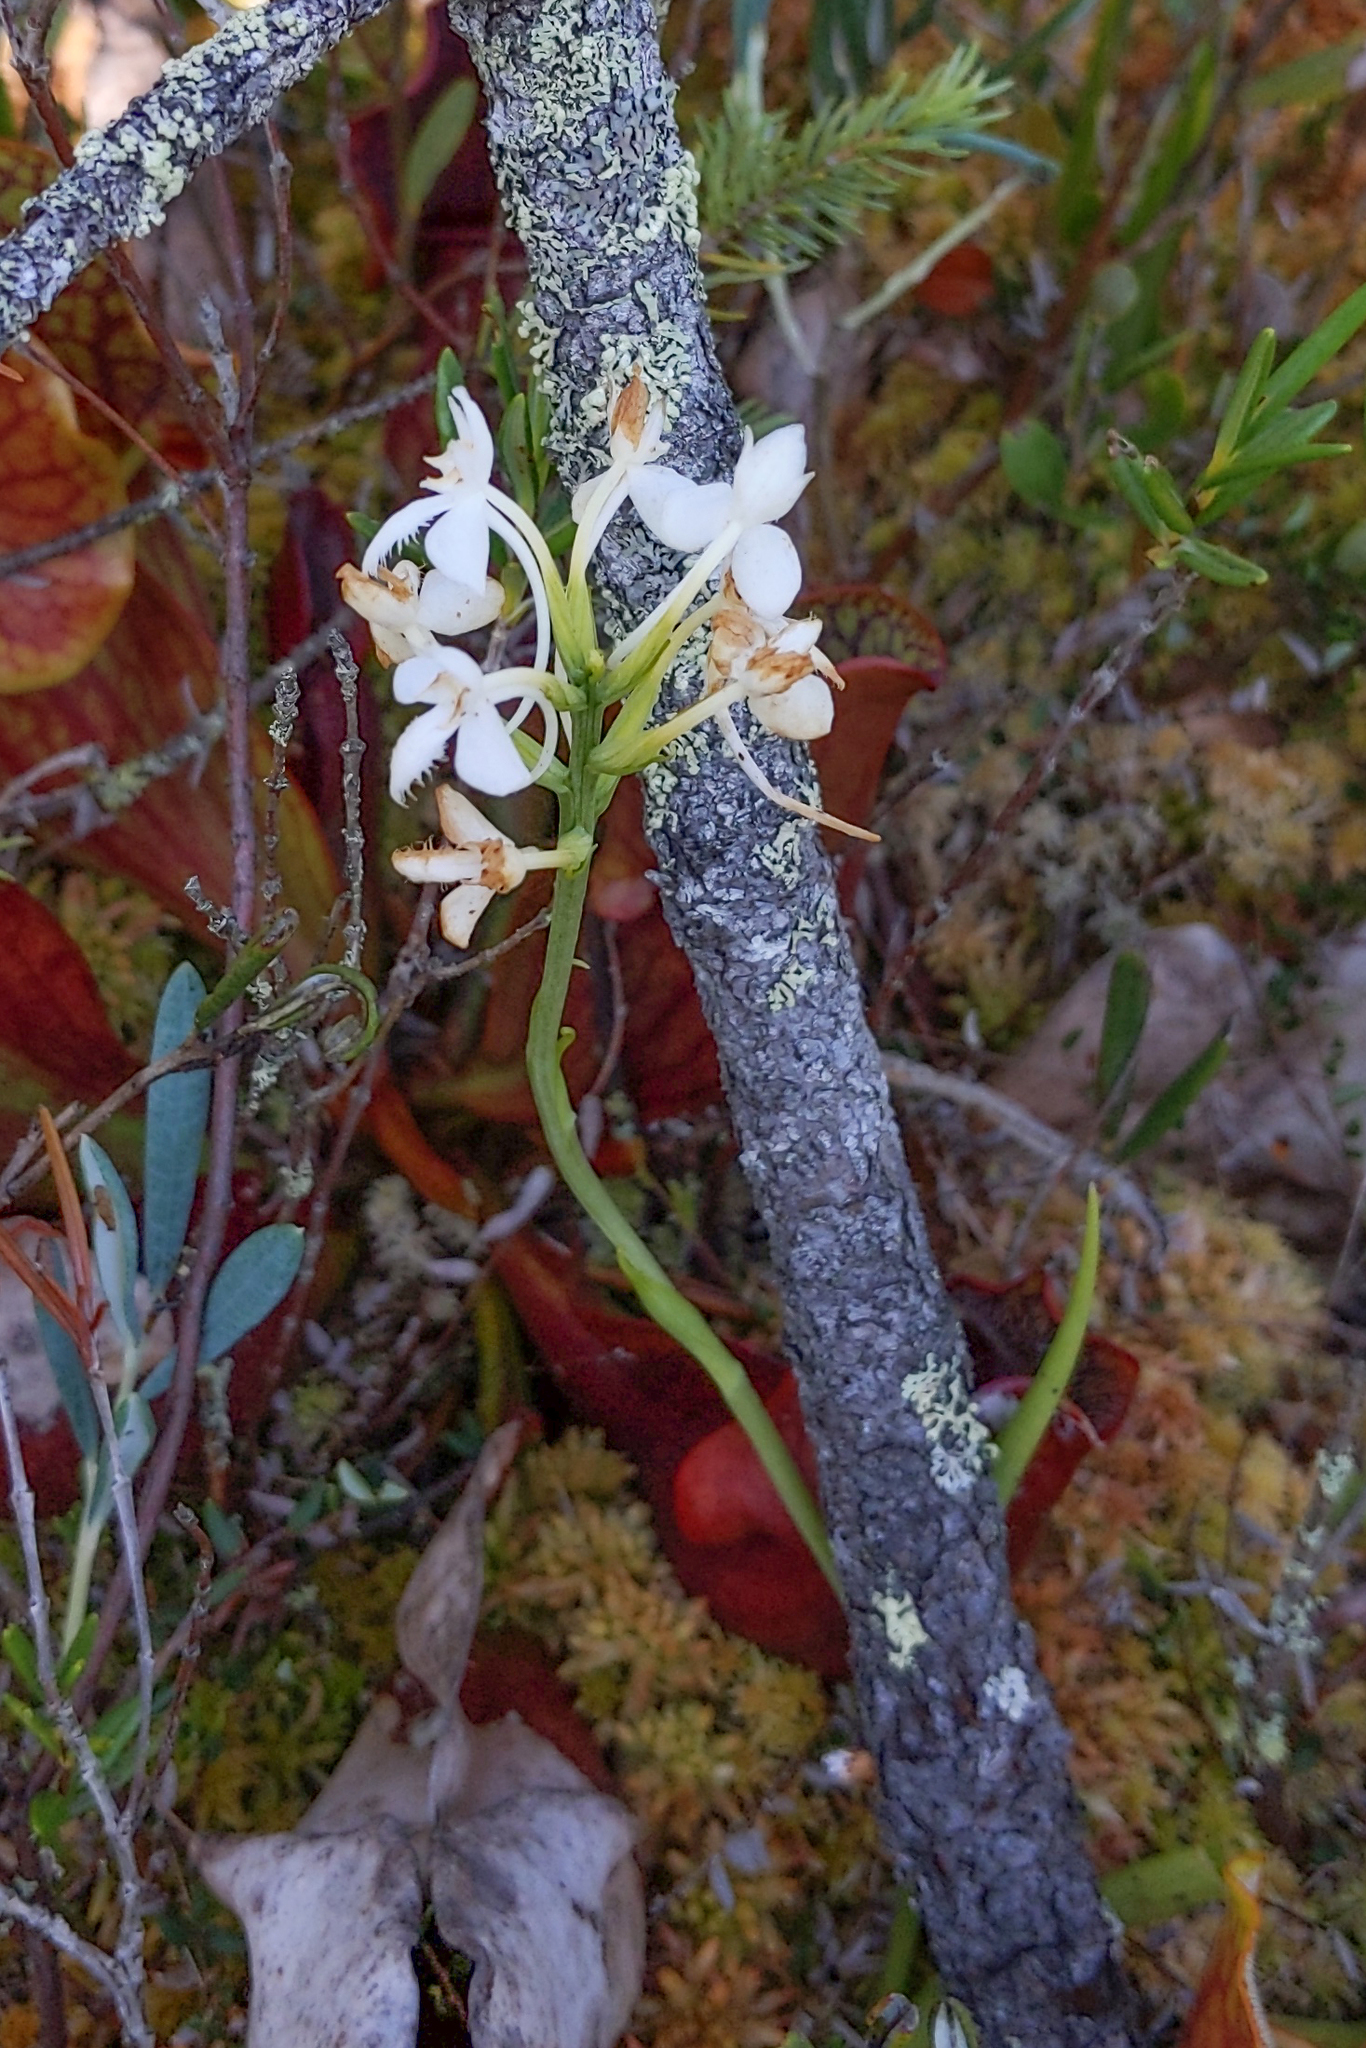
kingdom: Plantae
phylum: Tracheophyta
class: Liliopsida
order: Asparagales
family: Orchidaceae
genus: Platanthera
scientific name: Platanthera blephariglottis
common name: White fringed orchid
